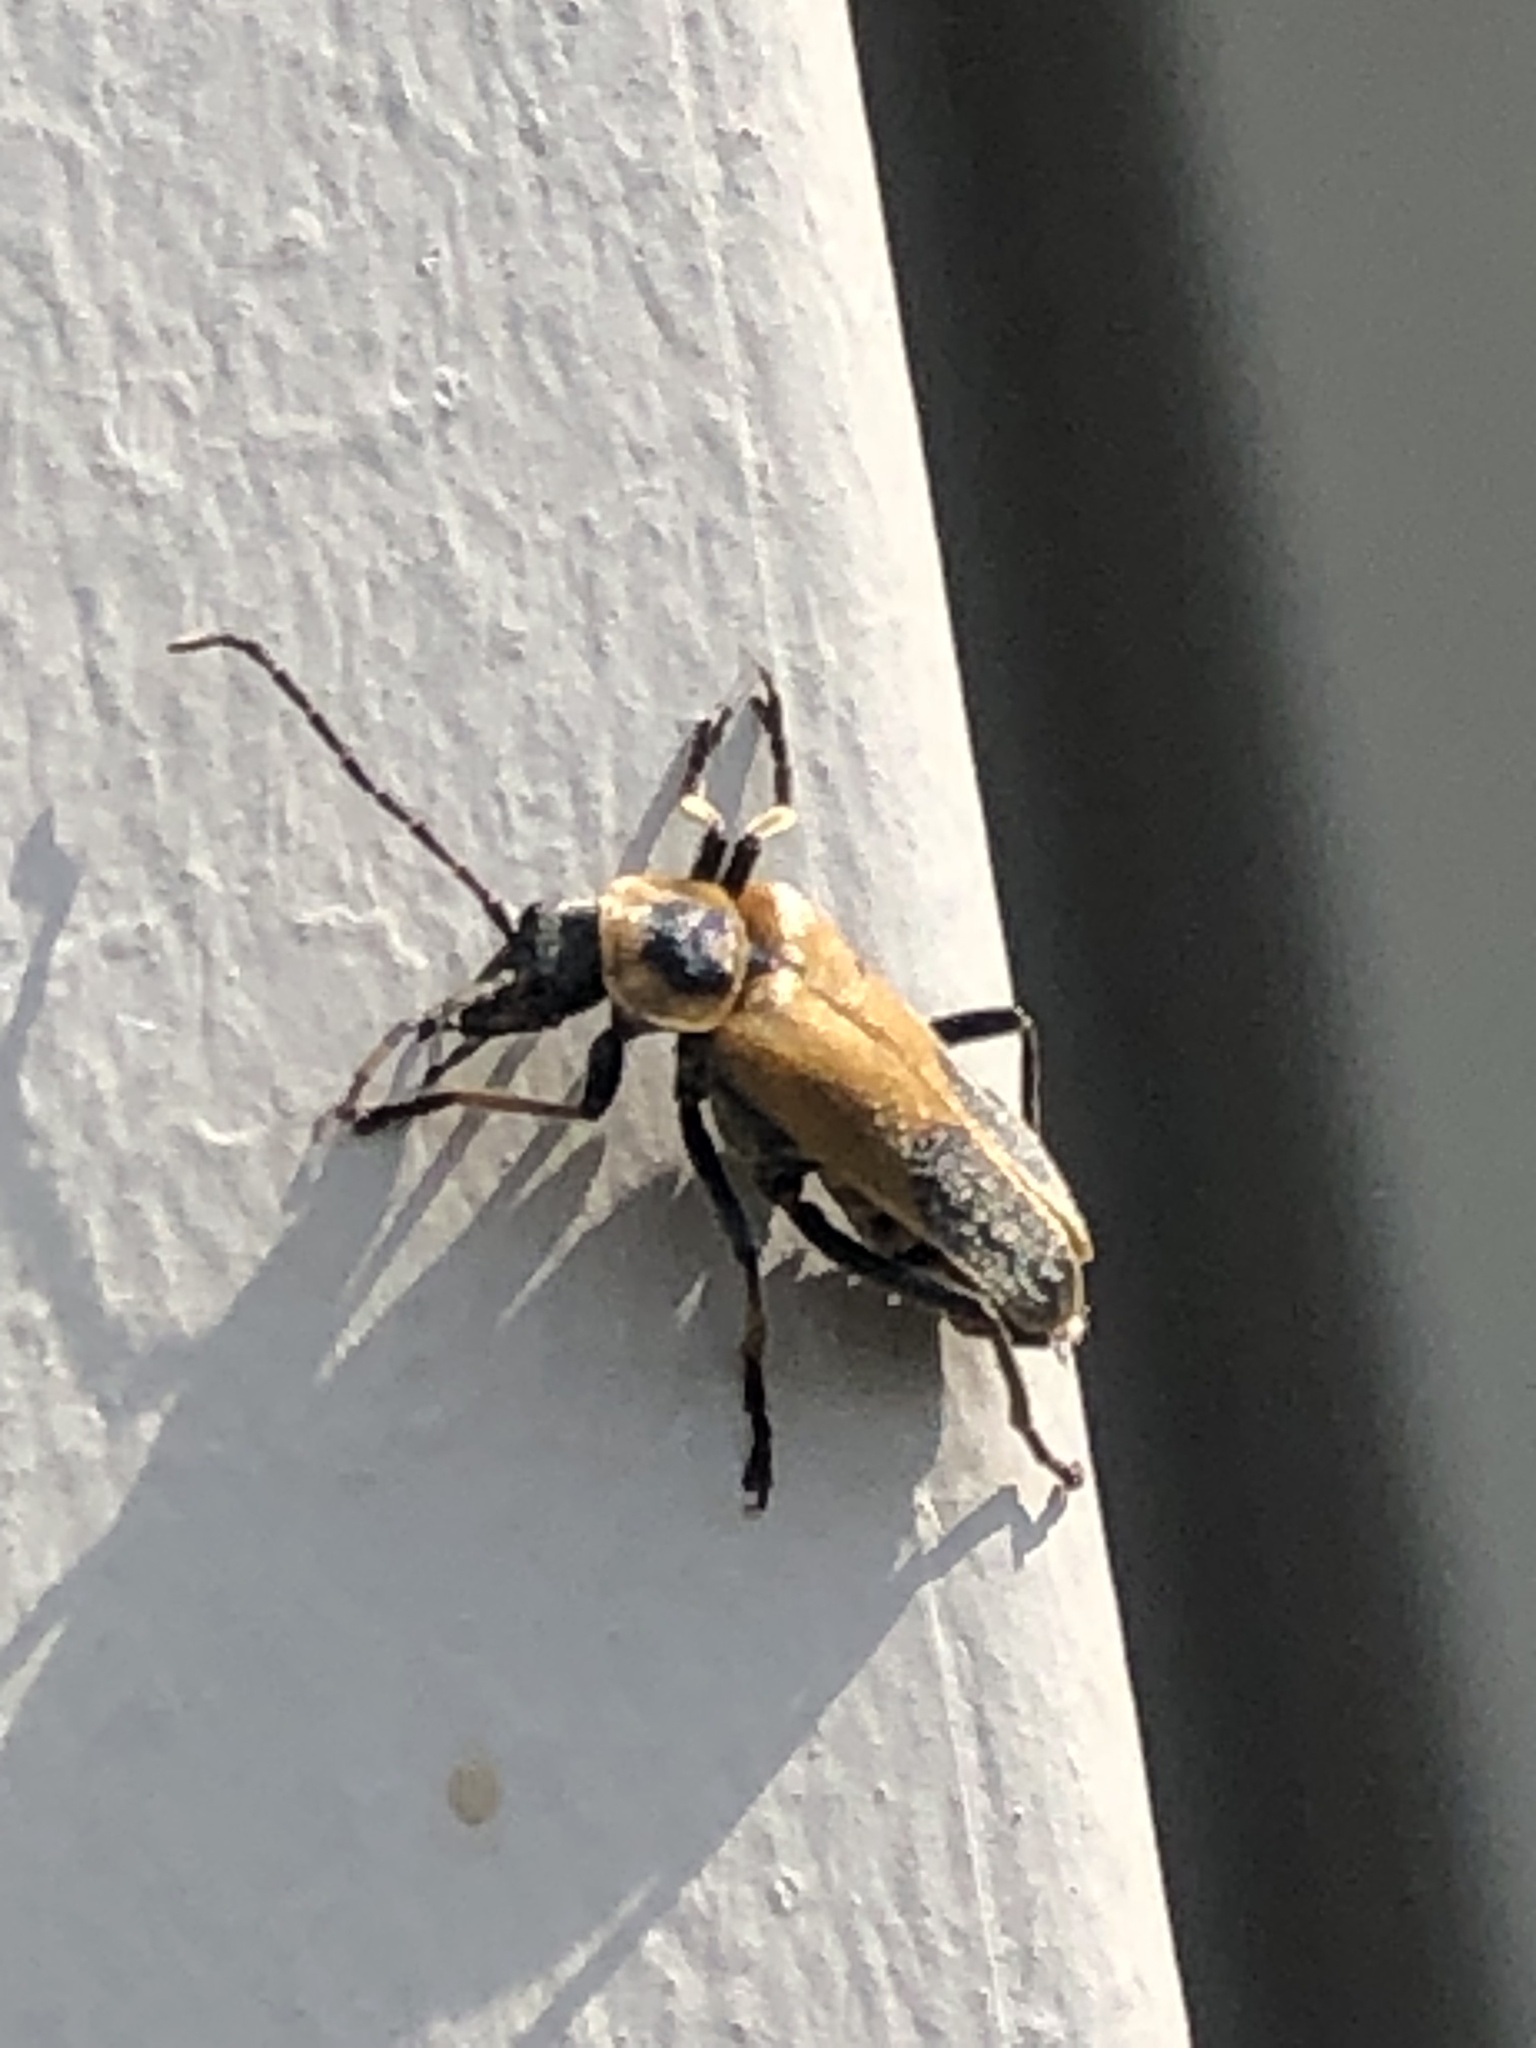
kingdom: Animalia
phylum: Arthropoda
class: Insecta
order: Coleoptera
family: Cantharidae
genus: Chauliognathus
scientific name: Chauliognathus pensylvanicus
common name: Goldenrod soldier beetle
